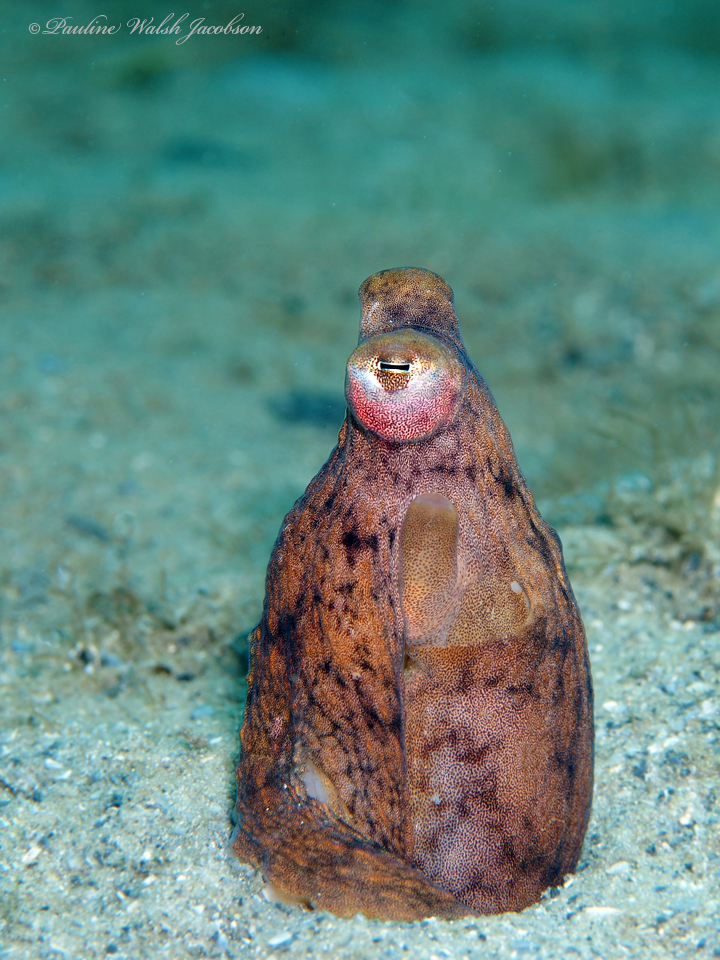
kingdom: Animalia
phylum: Mollusca
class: Cephalopoda
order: Octopoda
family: Octopodidae
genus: Macrotritopus
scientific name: Macrotritopus defilippi
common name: Lilliput longarm octopus
